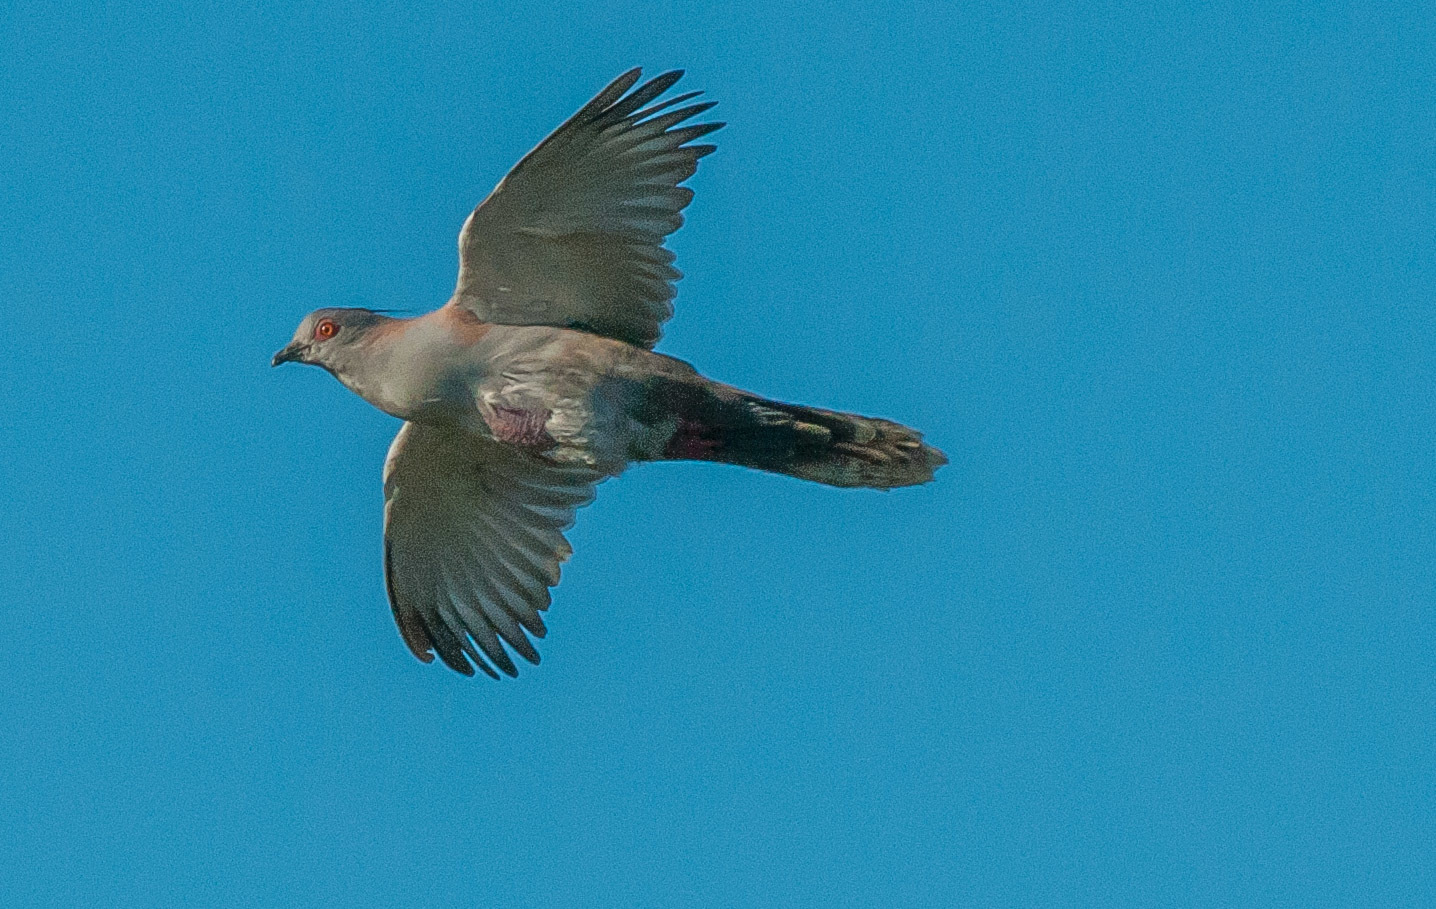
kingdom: Animalia
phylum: Chordata
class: Aves
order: Columbiformes
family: Columbidae
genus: Ocyphaps
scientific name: Ocyphaps lophotes
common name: Crested pigeon
